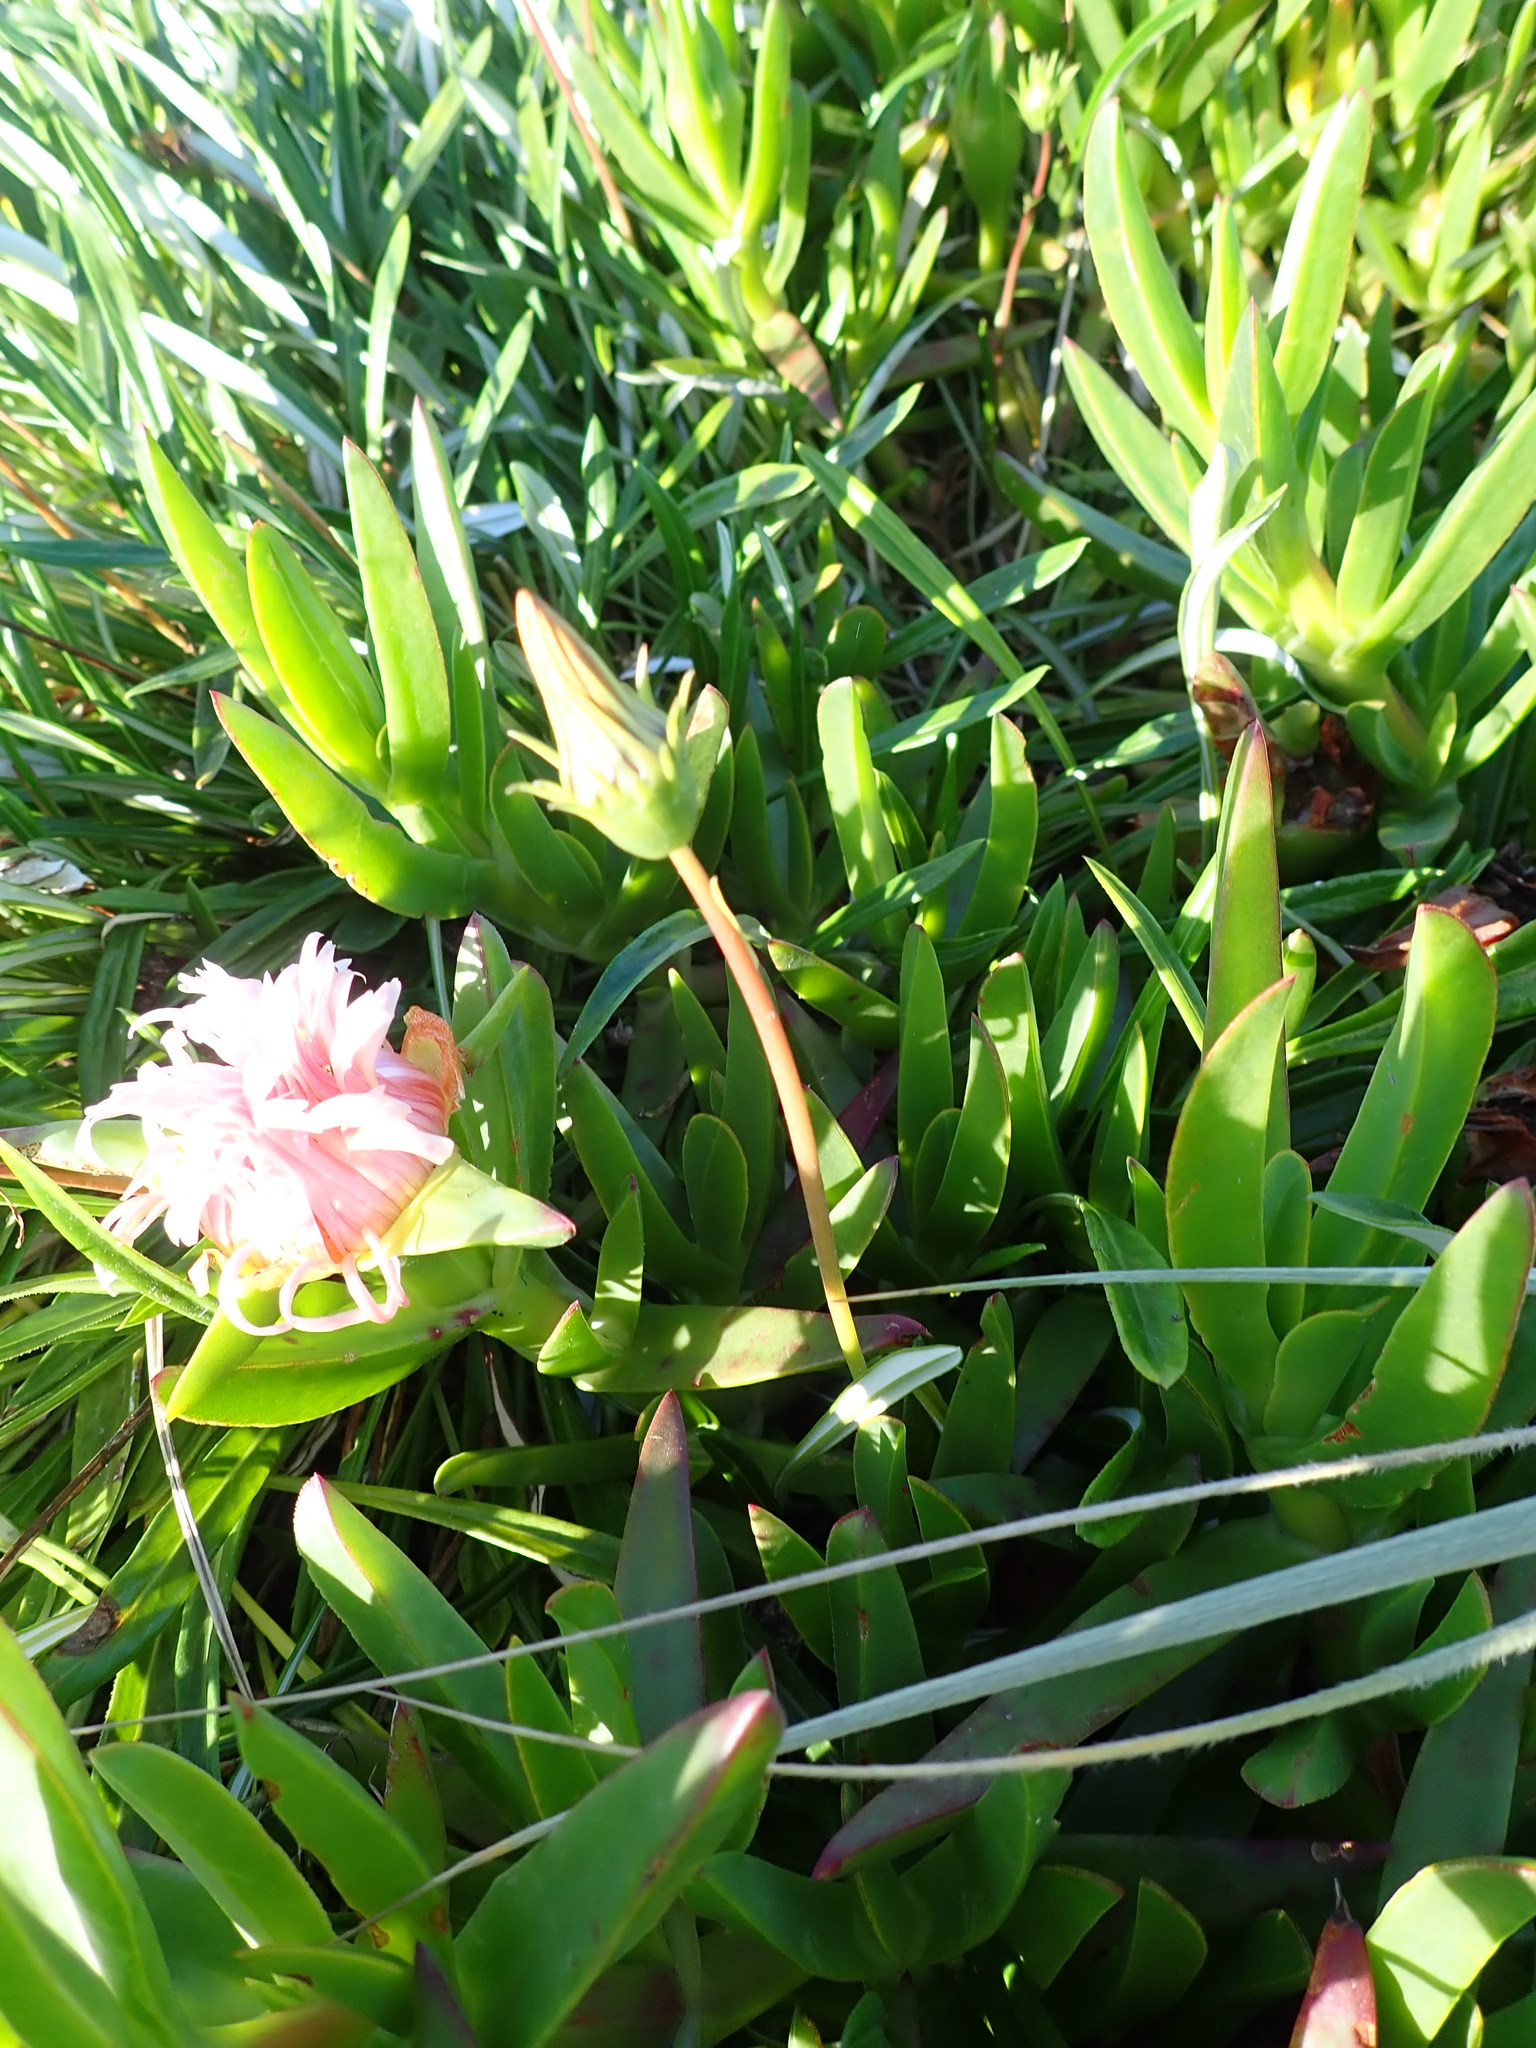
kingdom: Plantae
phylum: Tracheophyta
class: Magnoliopsida
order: Caryophyllales
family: Aizoaceae
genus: Carpobrotus
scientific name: Carpobrotus edulis
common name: Hottentot-fig
